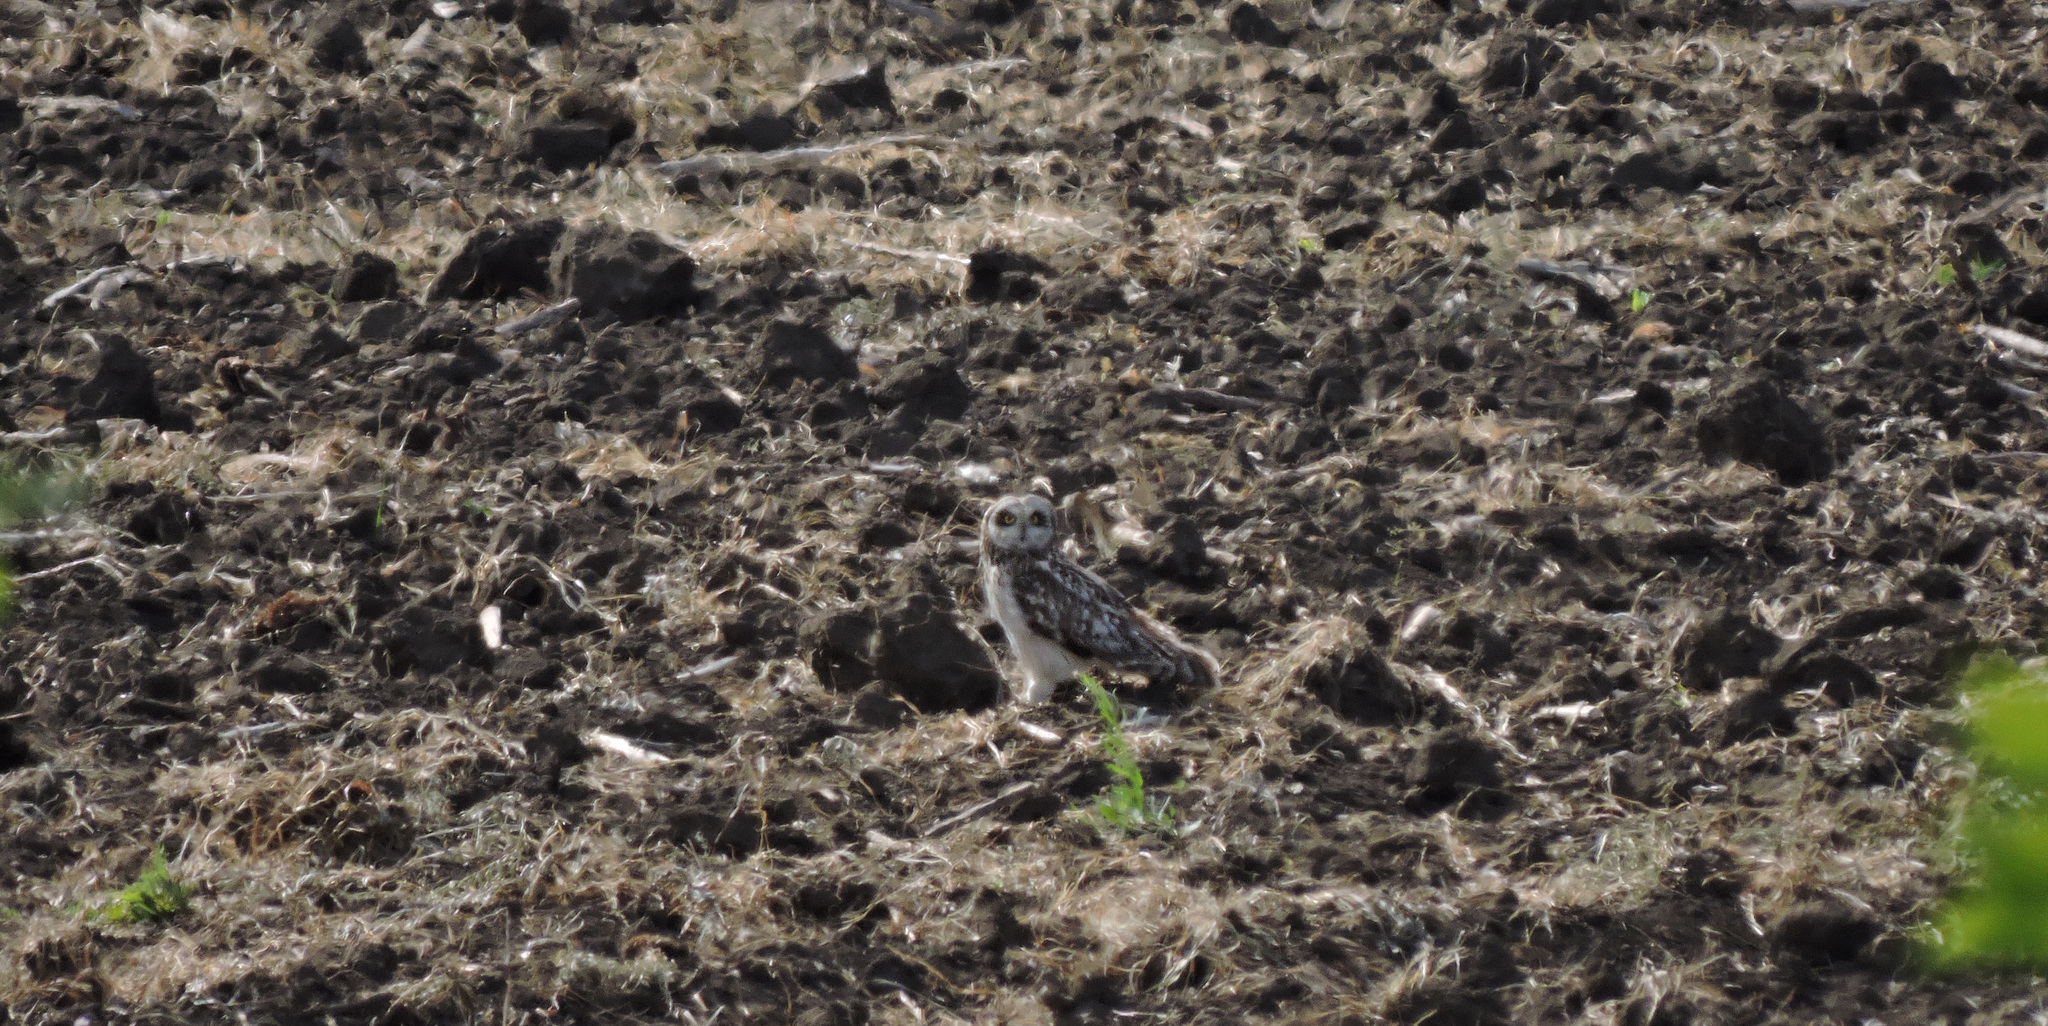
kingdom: Animalia
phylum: Chordata
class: Aves
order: Strigiformes
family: Strigidae
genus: Asio
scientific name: Asio flammeus
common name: Short-eared owl
